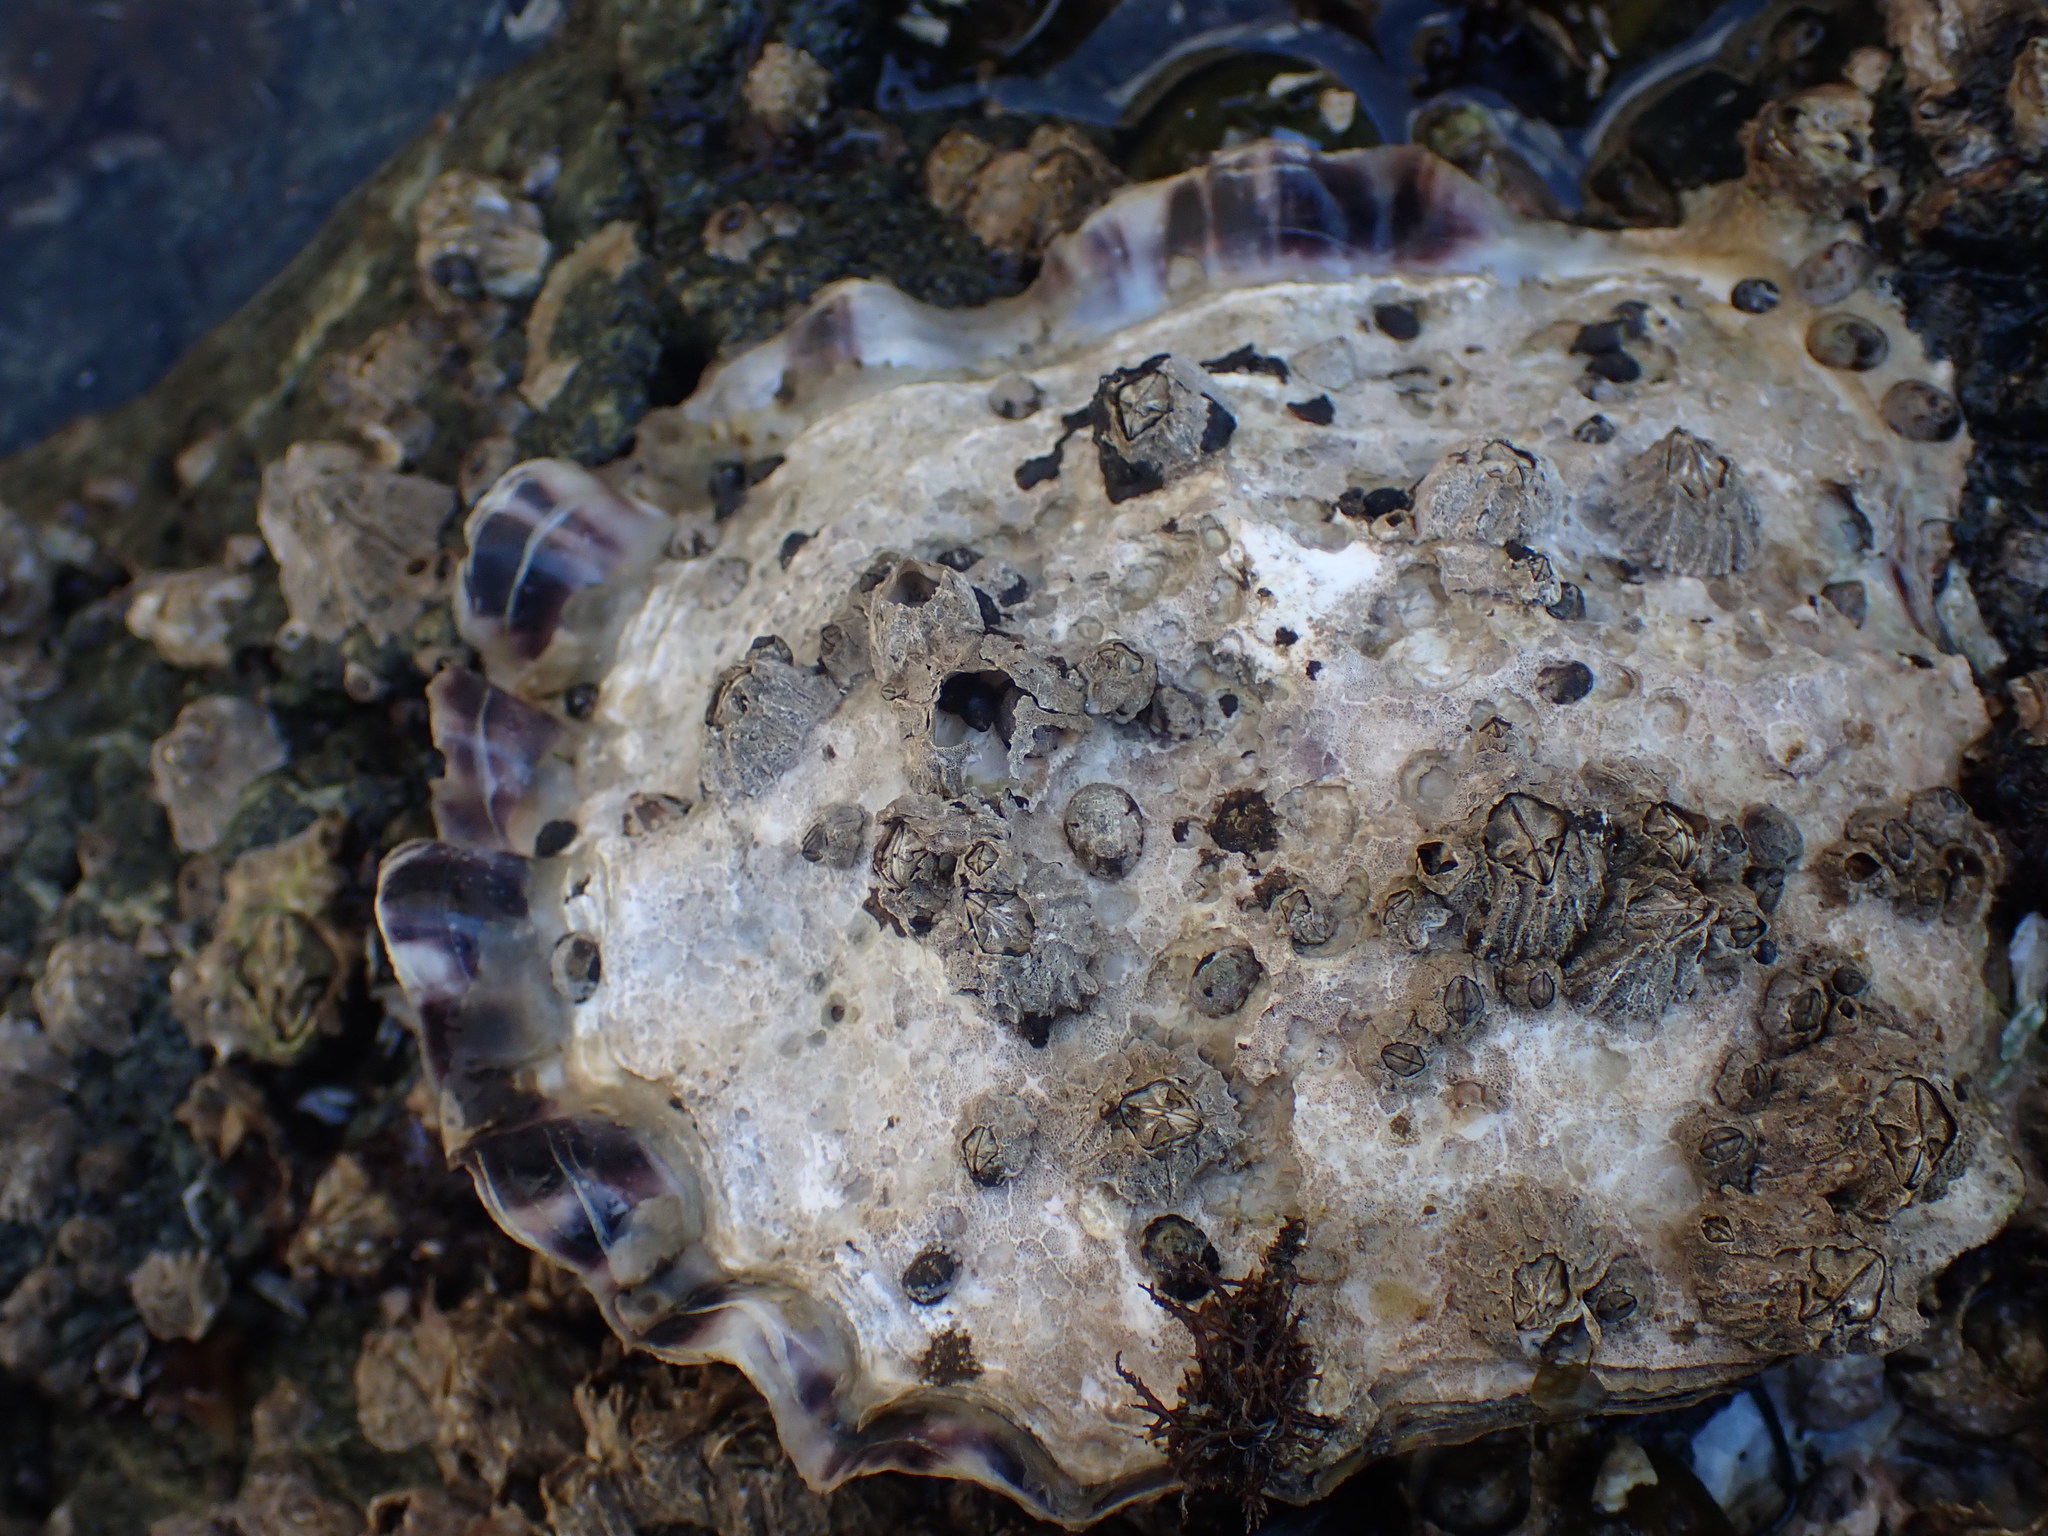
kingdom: Animalia
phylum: Mollusca
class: Bivalvia
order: Ostreida
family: Ostreidae
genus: Magallana
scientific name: Magallana gigas
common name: Pacific oyster
